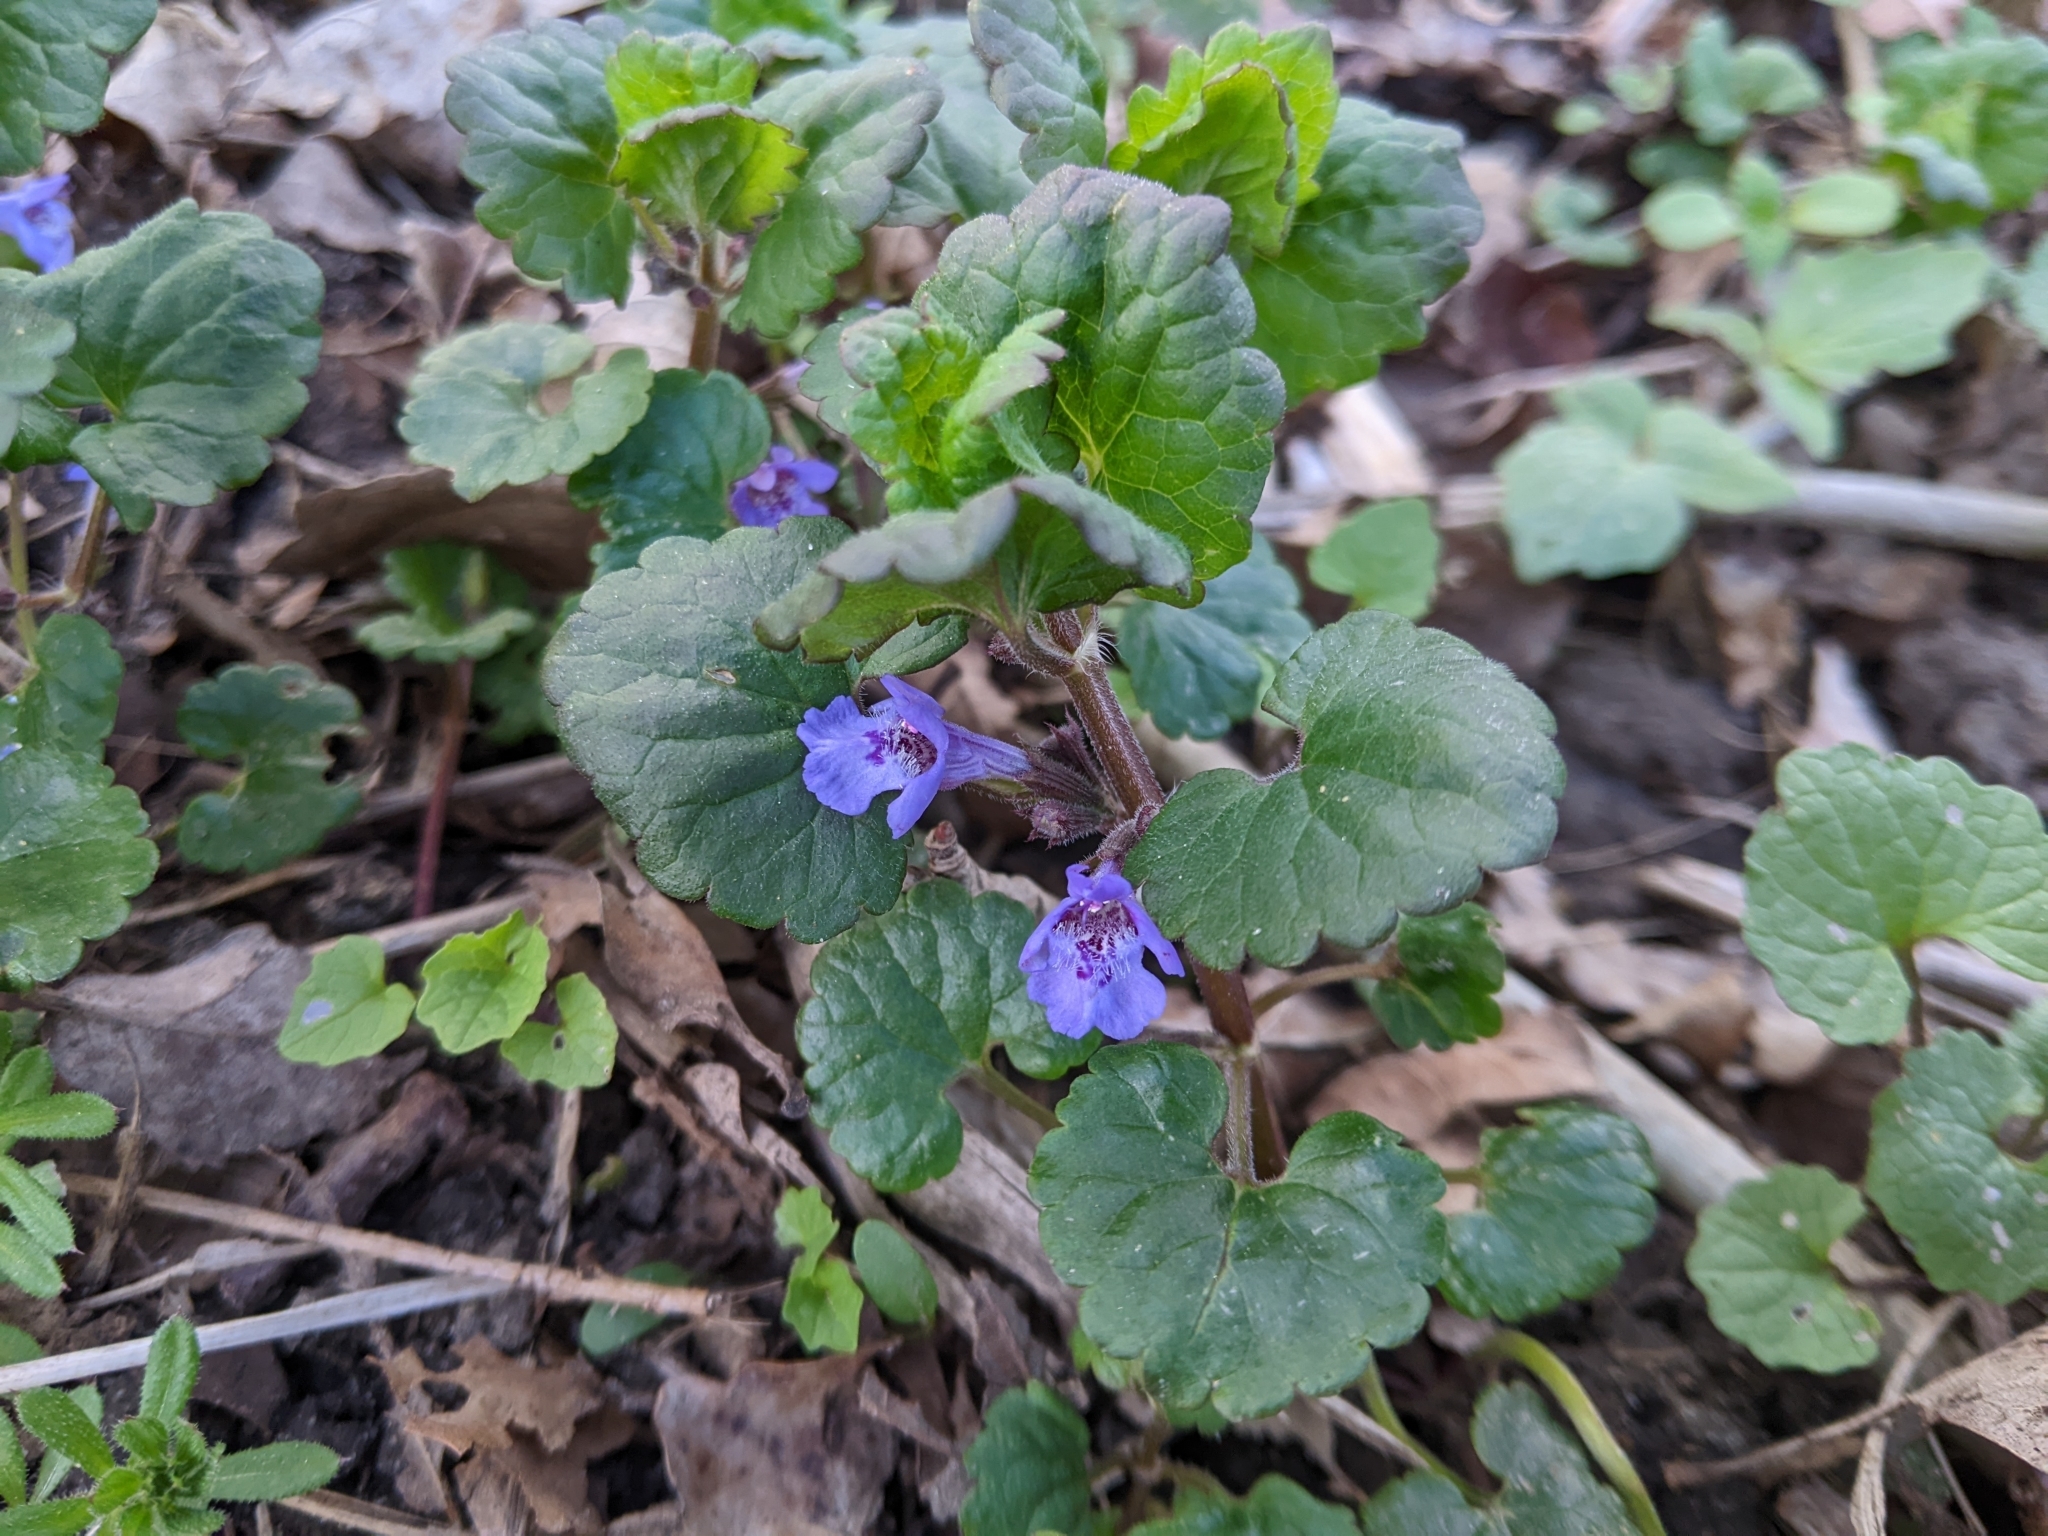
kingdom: Plantae
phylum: Tracheophyta
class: Magnoliopsida
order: Lamiales
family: Lamiaceae
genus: Glechoma
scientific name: Glechoma hederacea
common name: Ground ivy
